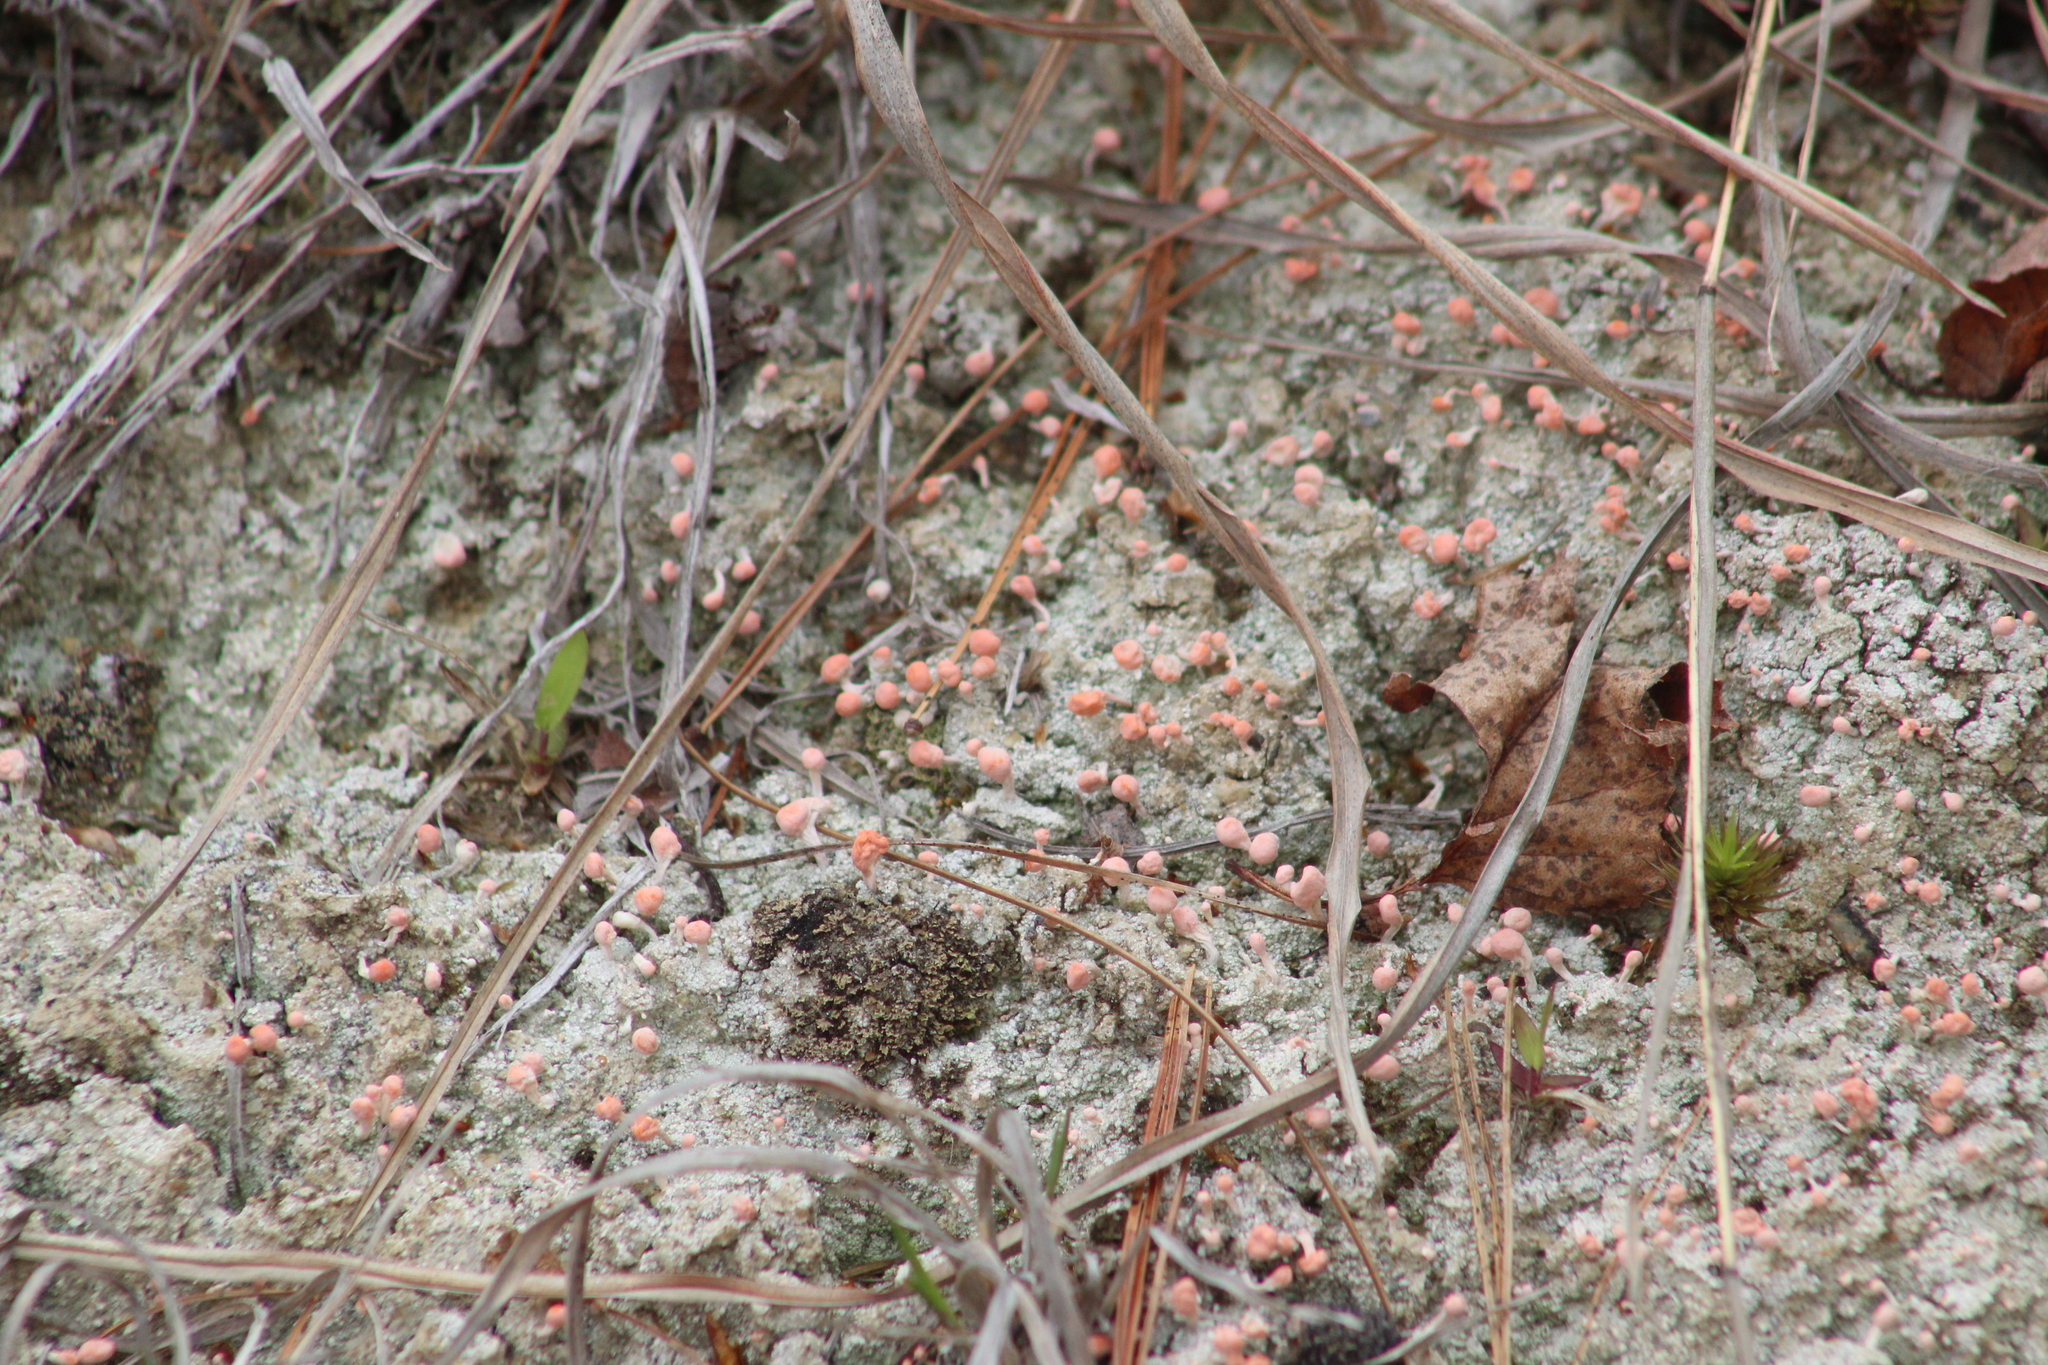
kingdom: Fungi
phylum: Ascomycota
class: Lecanoromycetes
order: Pertusariales
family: Icmadophilaceae
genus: Dibaeis
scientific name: Dibaeis baeomyces
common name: Pink earth lichen
